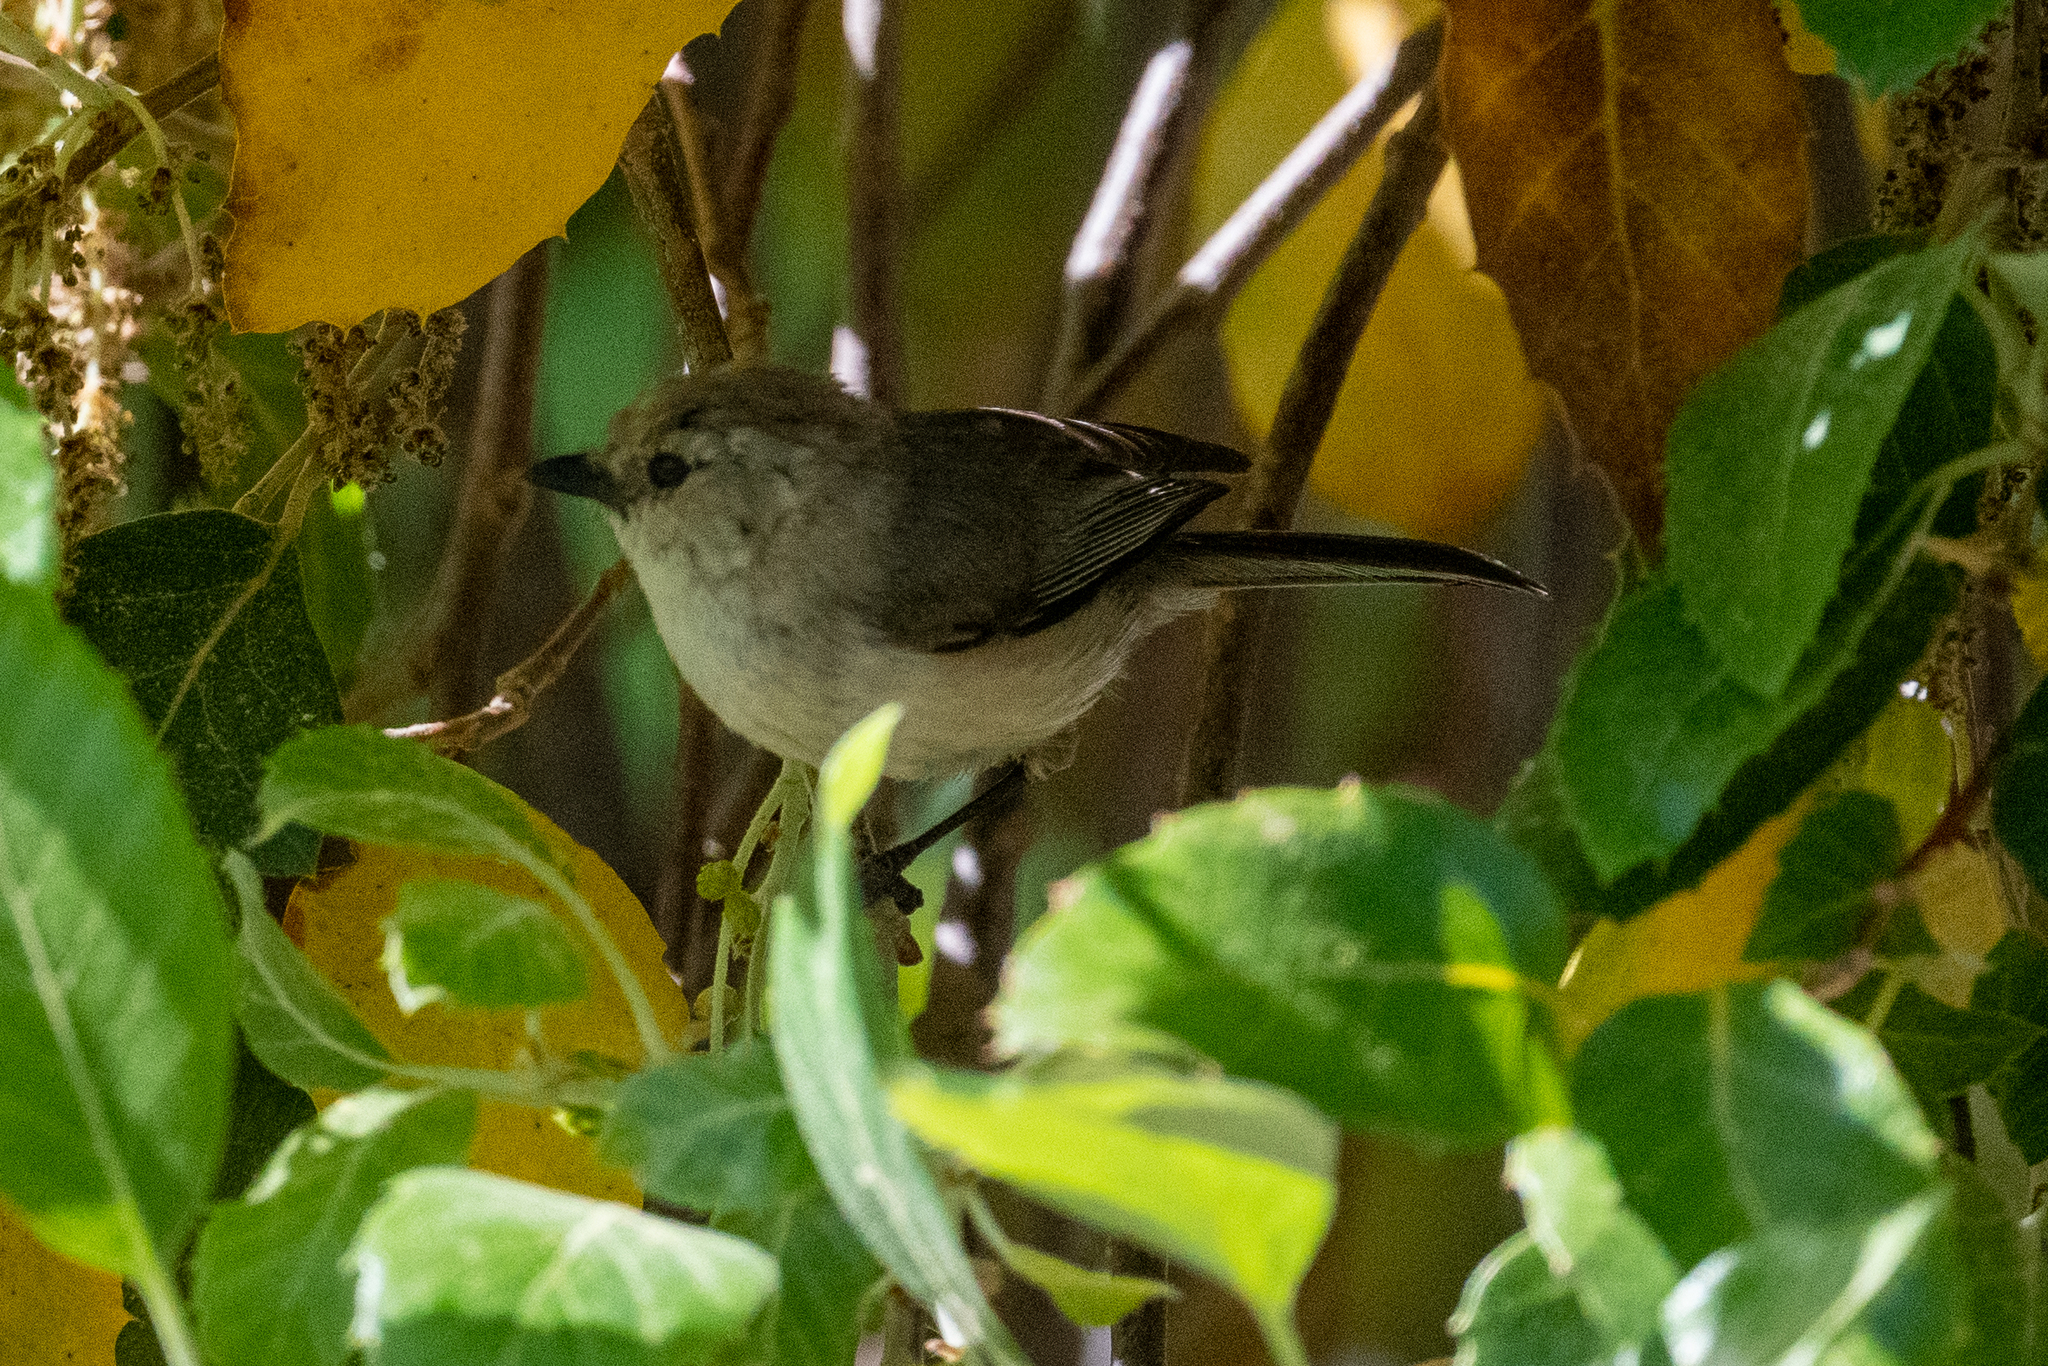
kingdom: Animalia
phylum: Chordata
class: Aves
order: Passeriformes
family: Aegithalidae
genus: Psaltriparus
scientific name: Psaltriparus minimus
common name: American bushtit
